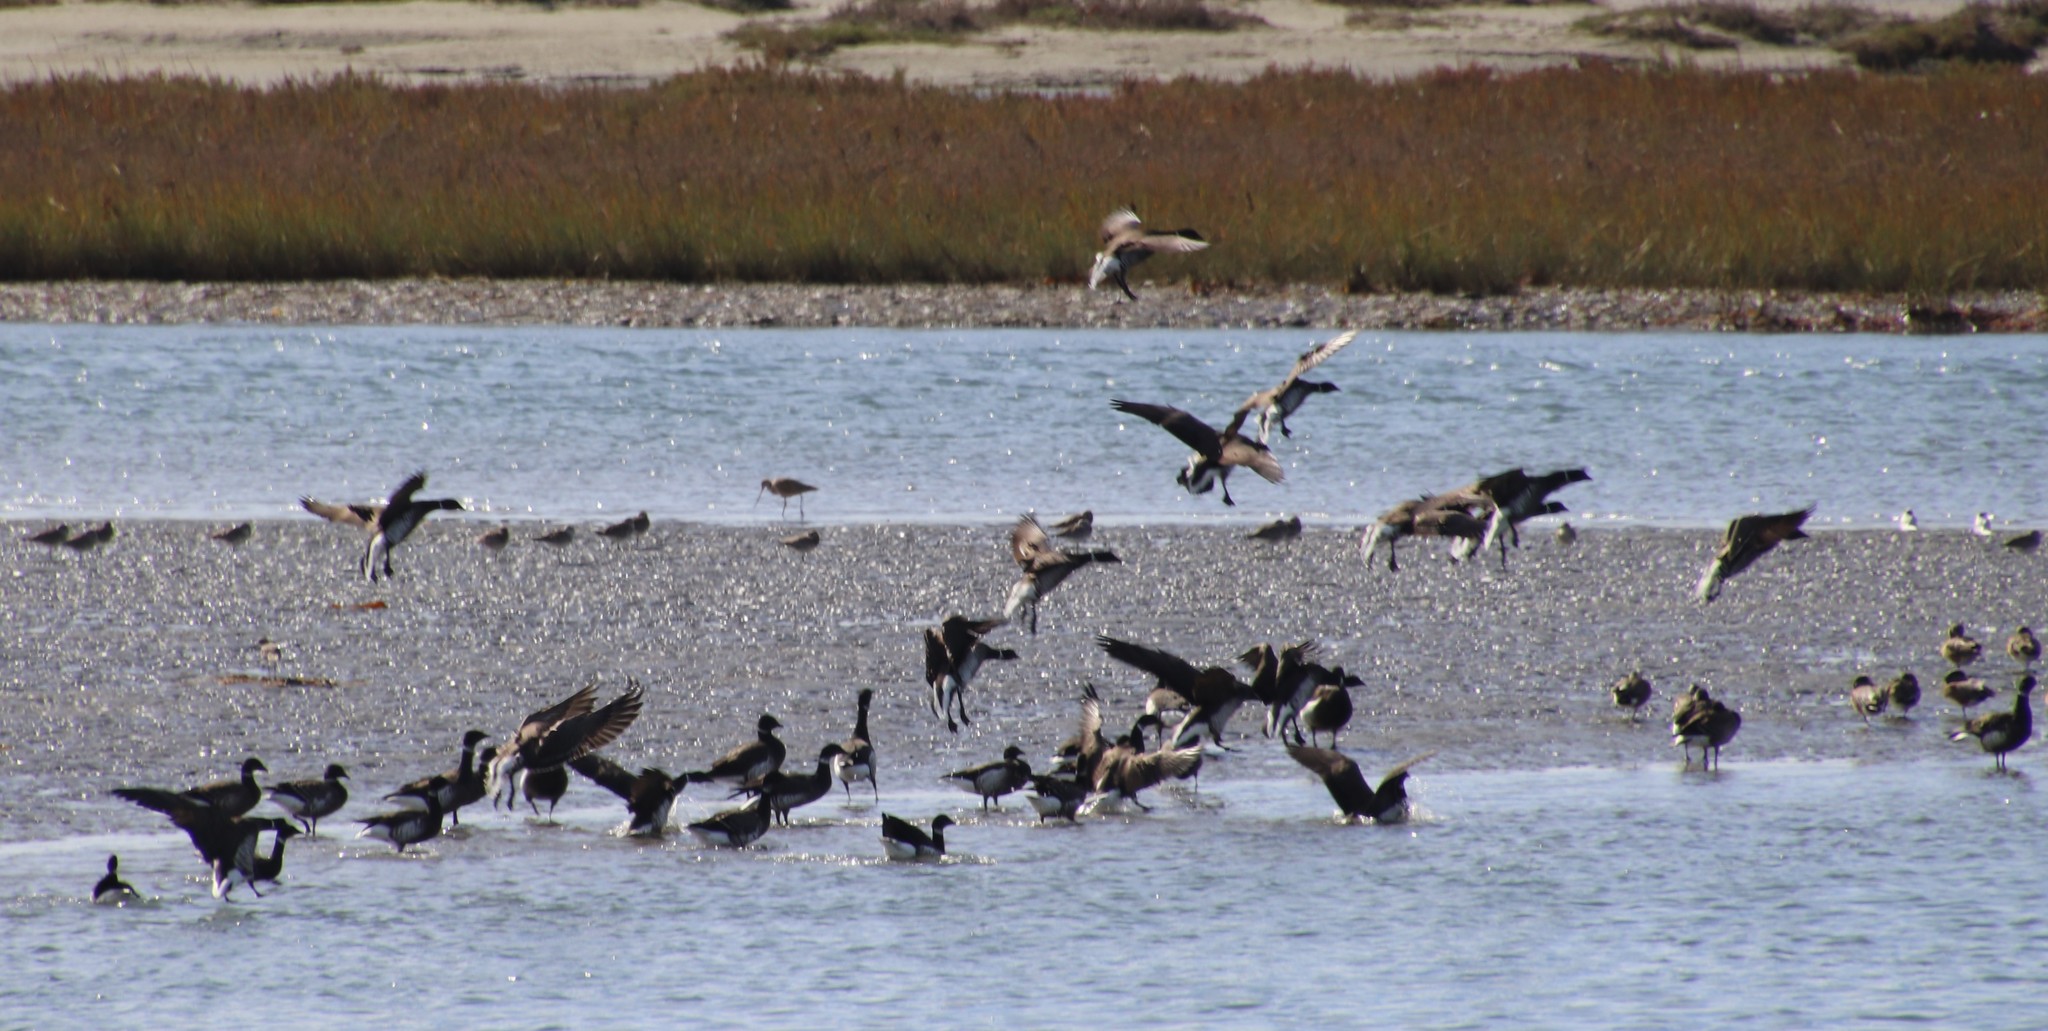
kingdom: Animalia
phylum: Chordata
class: Aves
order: Anseriformes
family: Anatidae
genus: Branta
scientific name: Branta bernicla
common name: Brant goose
